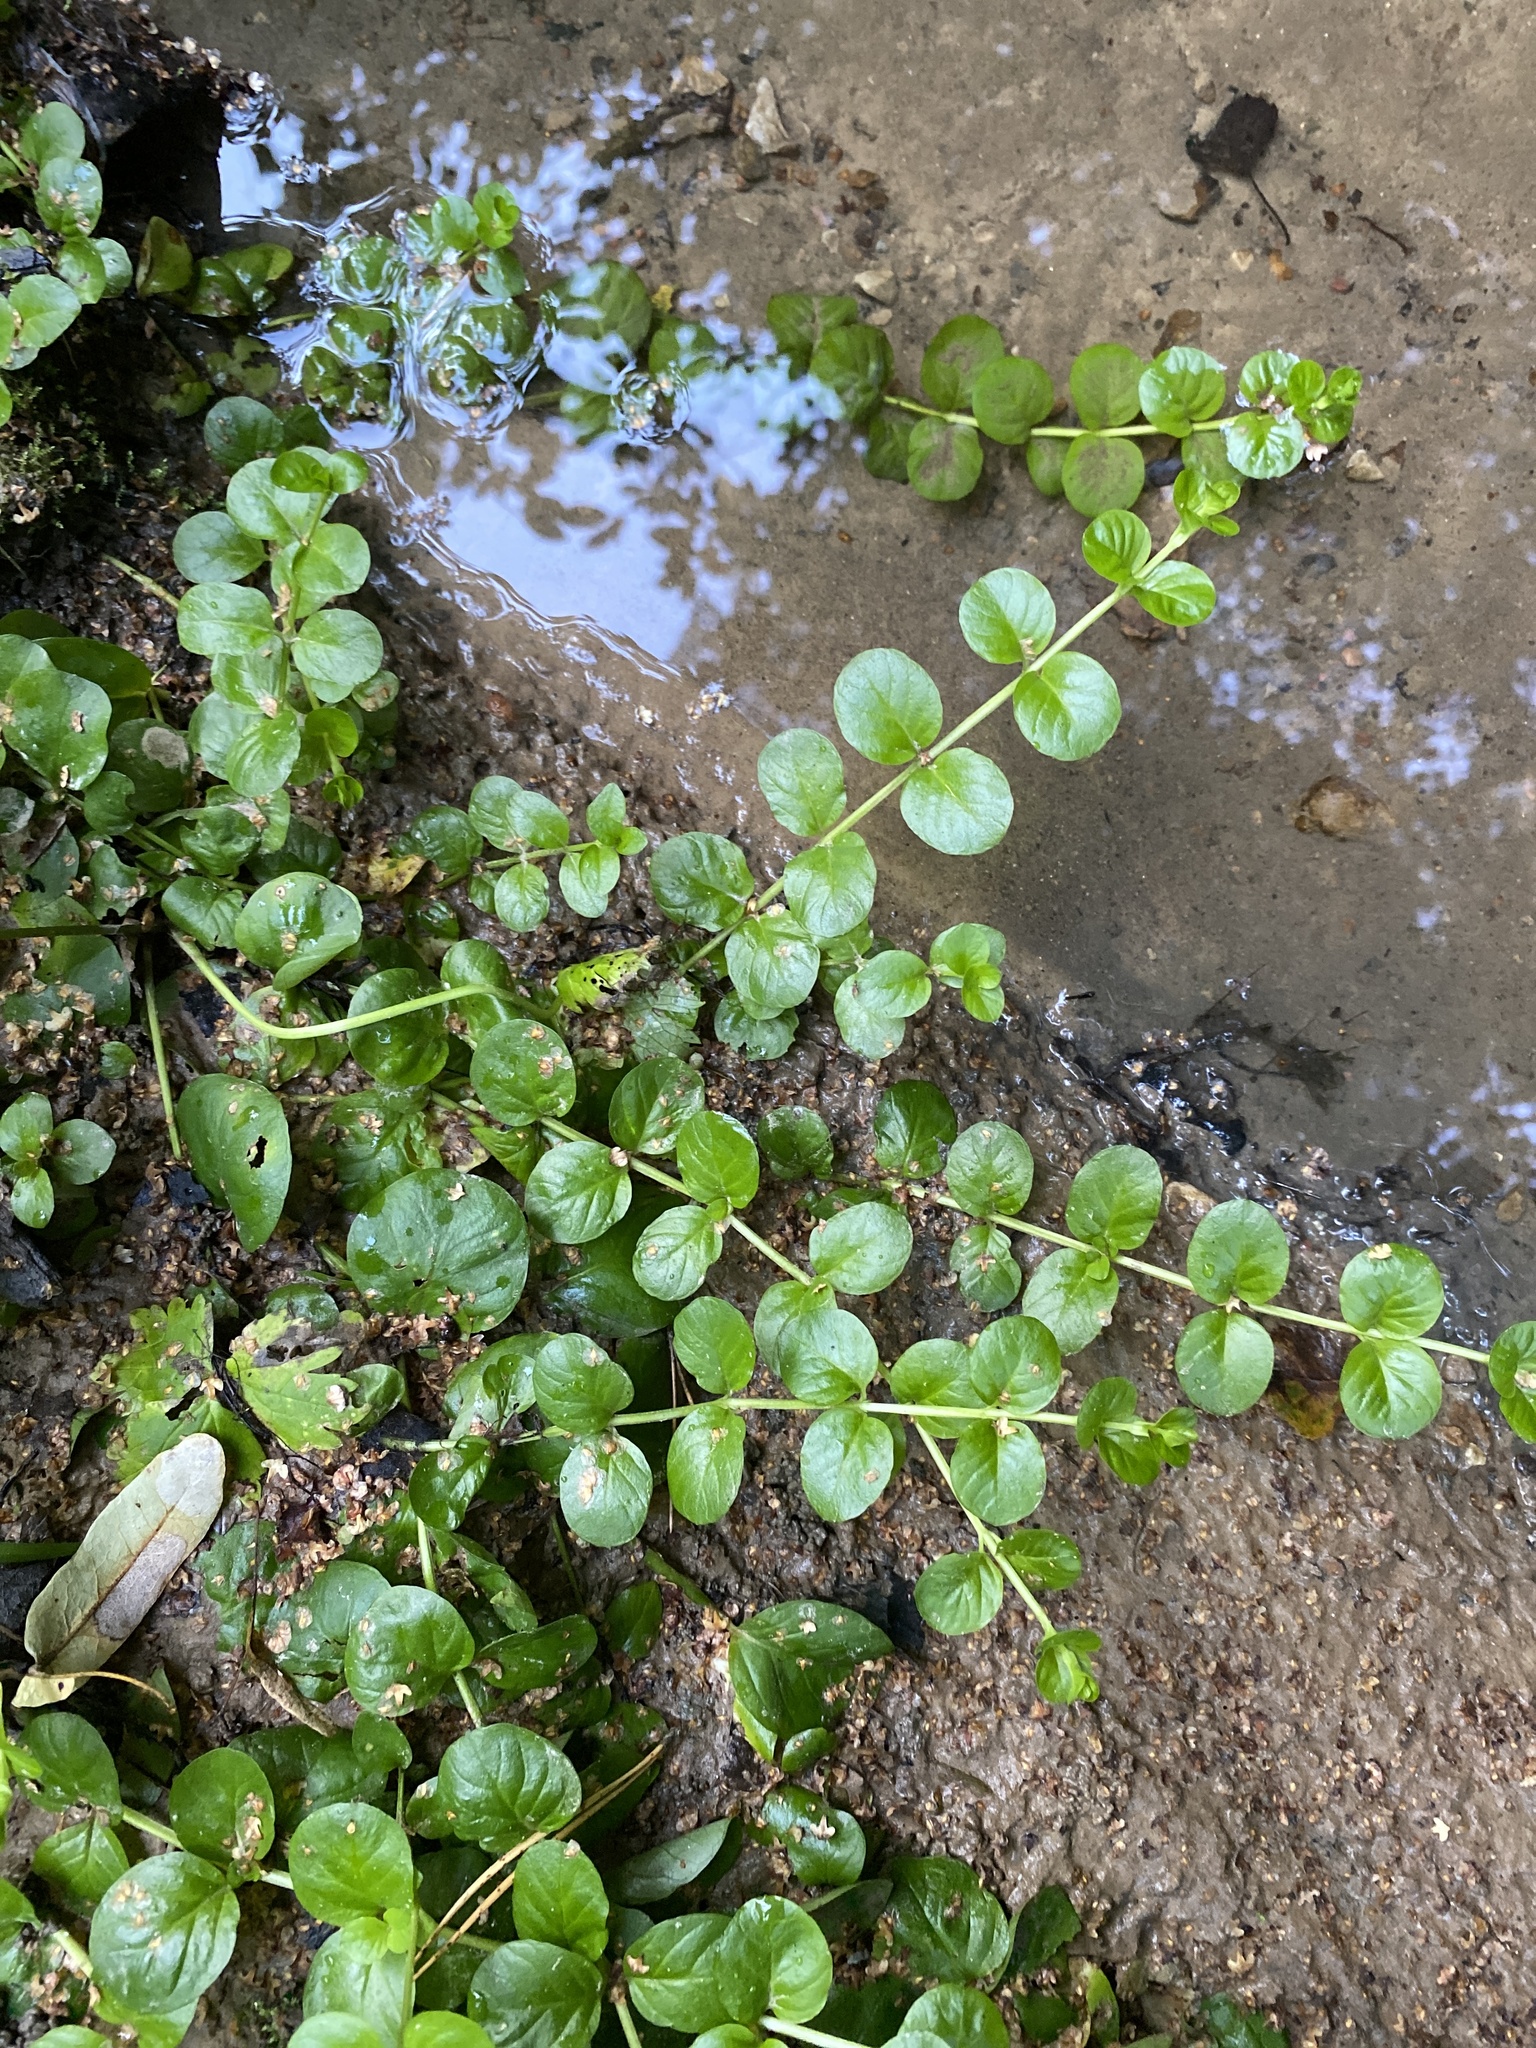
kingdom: Plantae
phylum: Tracheophyta
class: Magnoliopsida
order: Ericales
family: Primulaceae
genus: Lysimachia
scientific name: Lysimachia nummularia
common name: Moneywort
